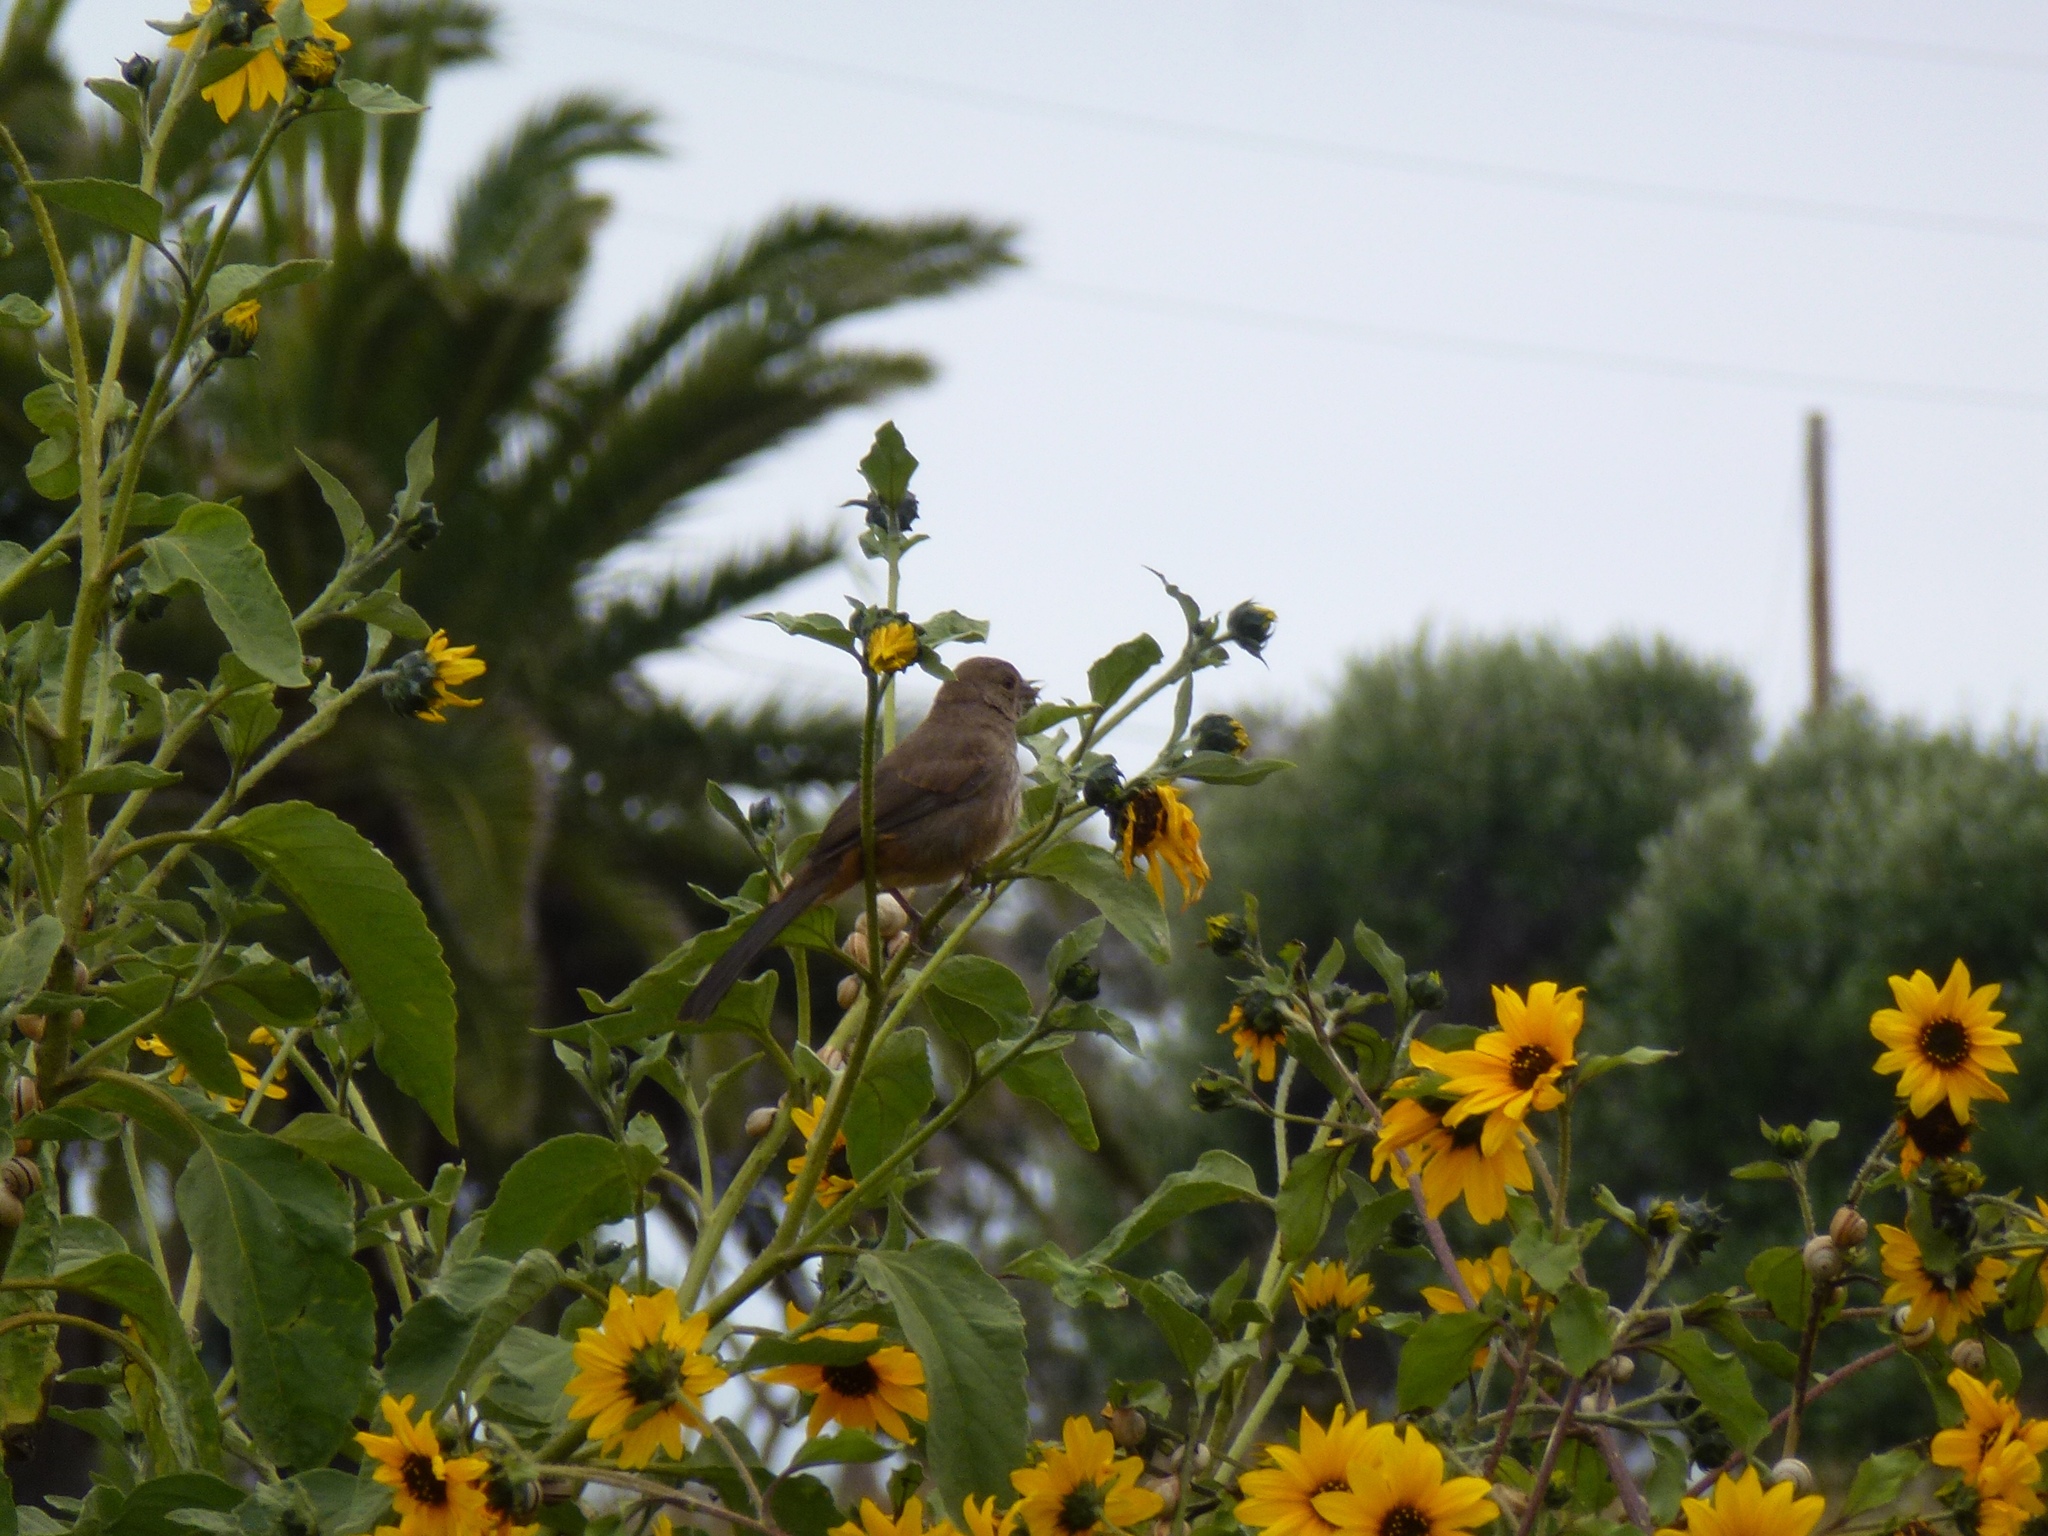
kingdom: Animalia
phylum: Chordata
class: Aves
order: Passeriformes
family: Passerellidae
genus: Melozone
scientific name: Melozone crissalis
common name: California towhee
